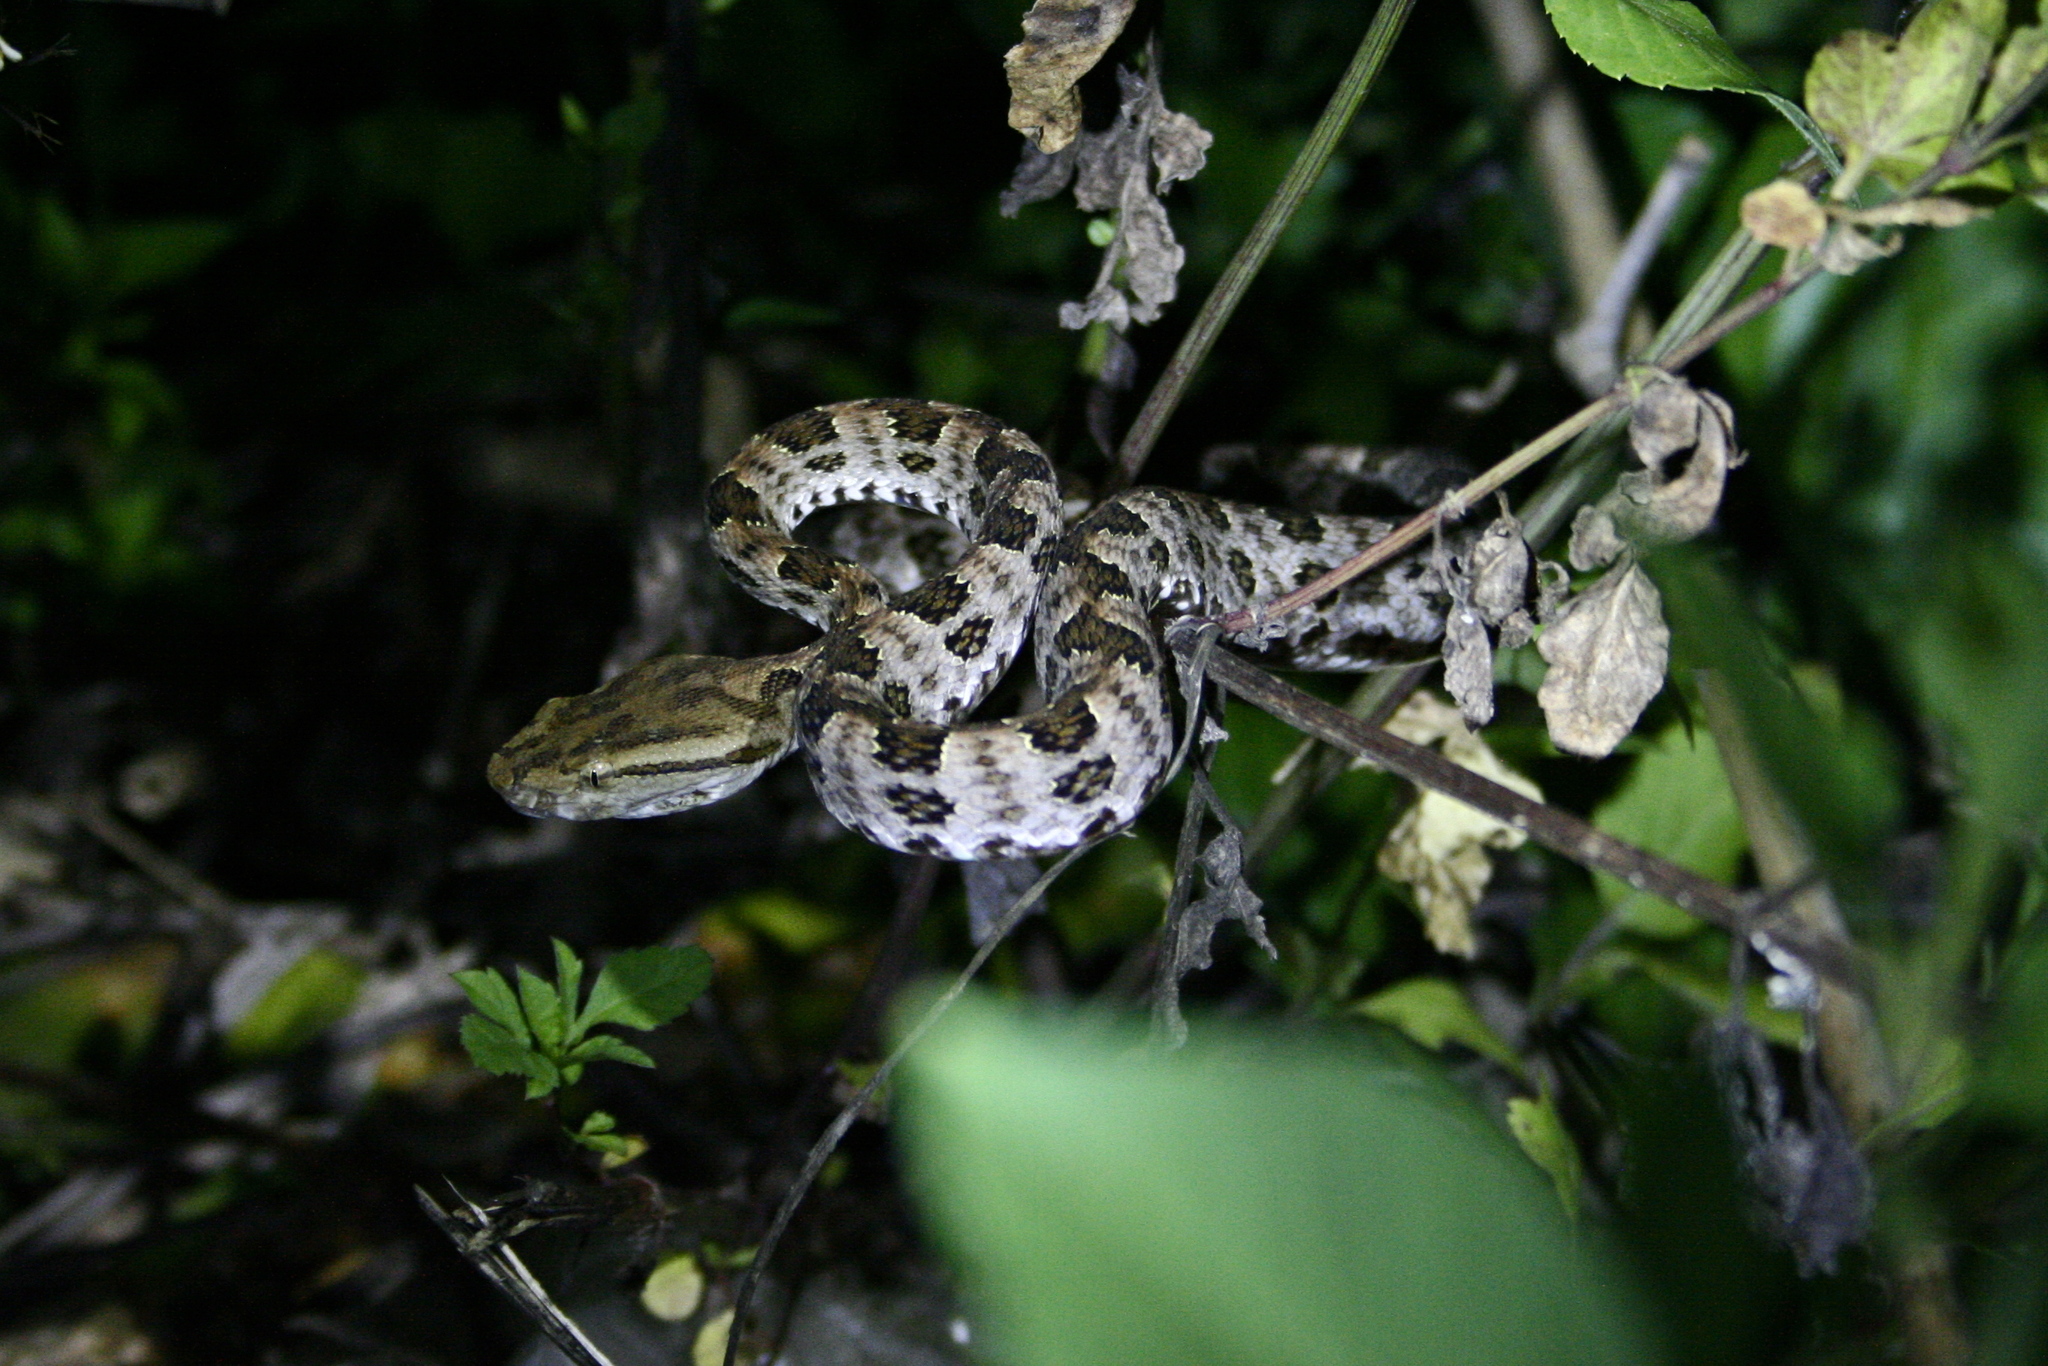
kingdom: Animalia
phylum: Chordata
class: Squamata
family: Viperidae
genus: Protobothrops
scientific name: Protobothrops mucrosquamatus
